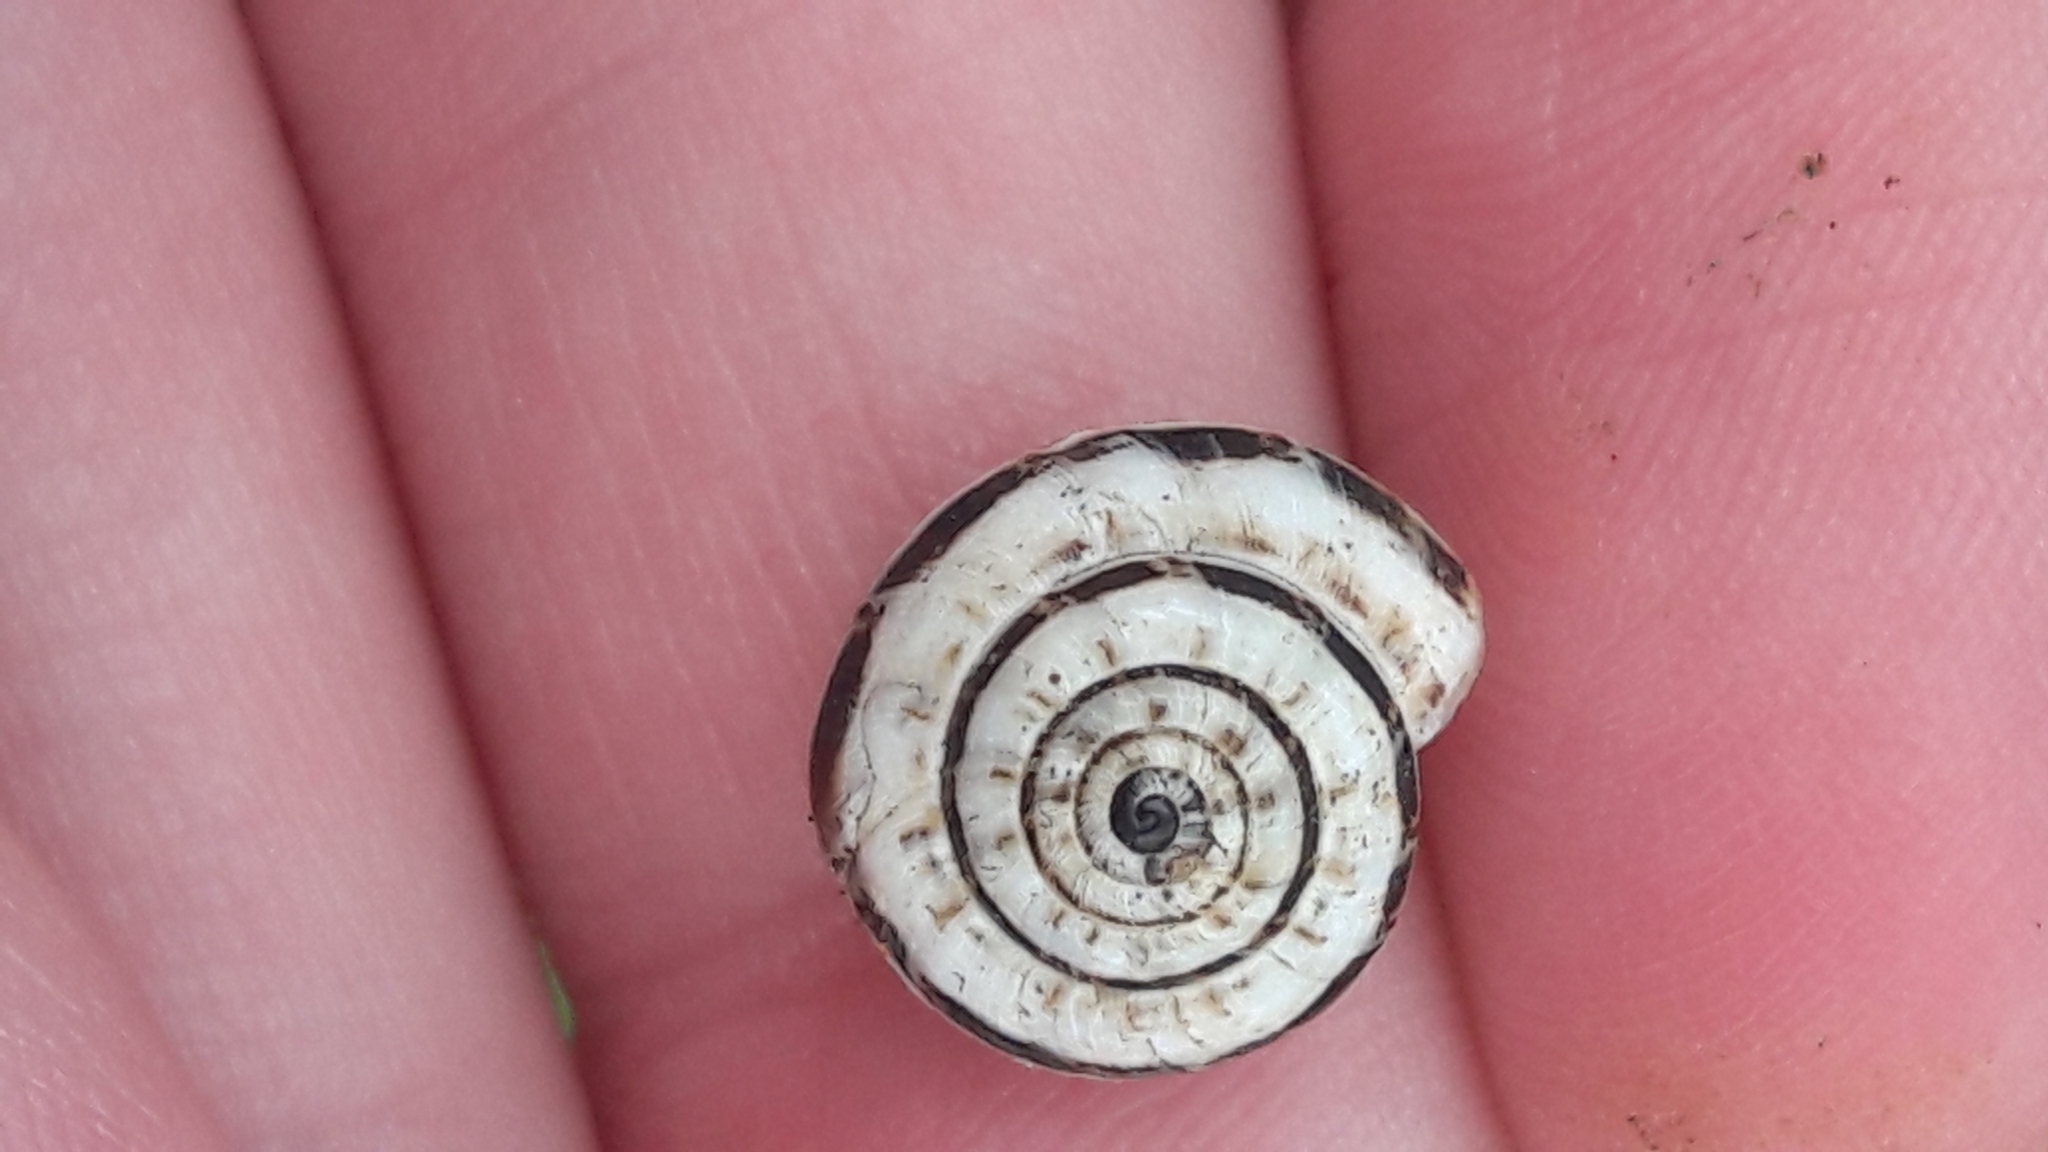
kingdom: Animalia
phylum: Mollusca
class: Gastropoda
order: Stylommatophora
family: Geomitridae
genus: Xeropicta
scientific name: Xeropicta krynickii
